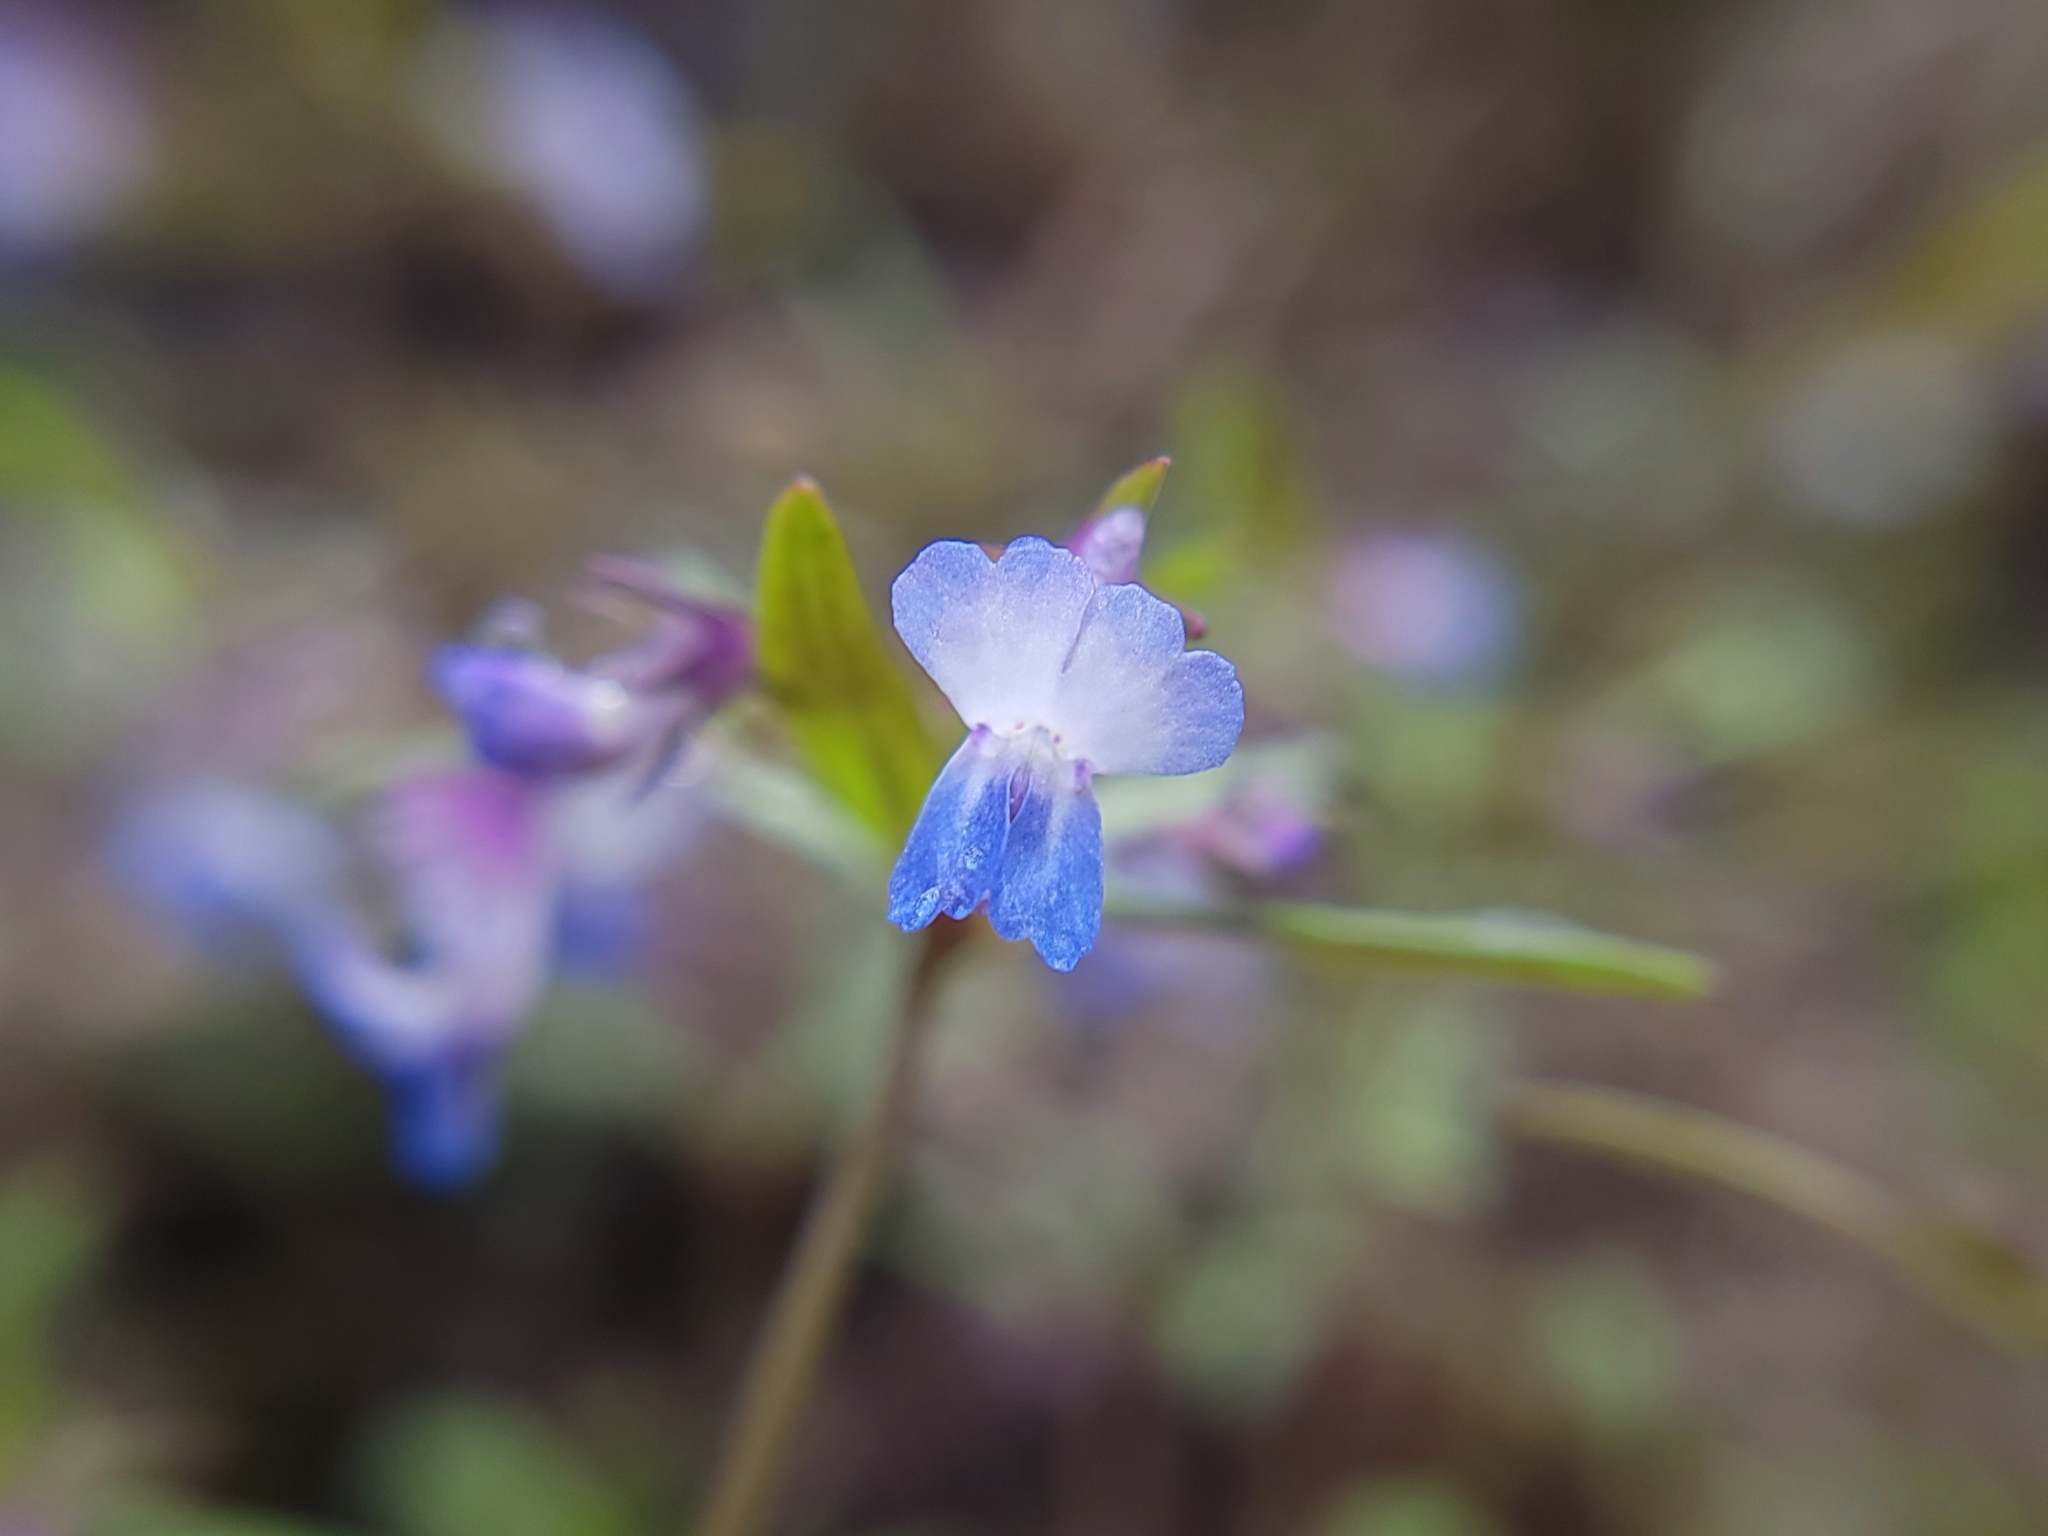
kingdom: Plantae
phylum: Tracheophyta
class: Magnoliopsida
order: Lamiales
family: Plantaginaceae
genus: Collinsia
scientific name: Collinsia parviflora
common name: Blue-lips
